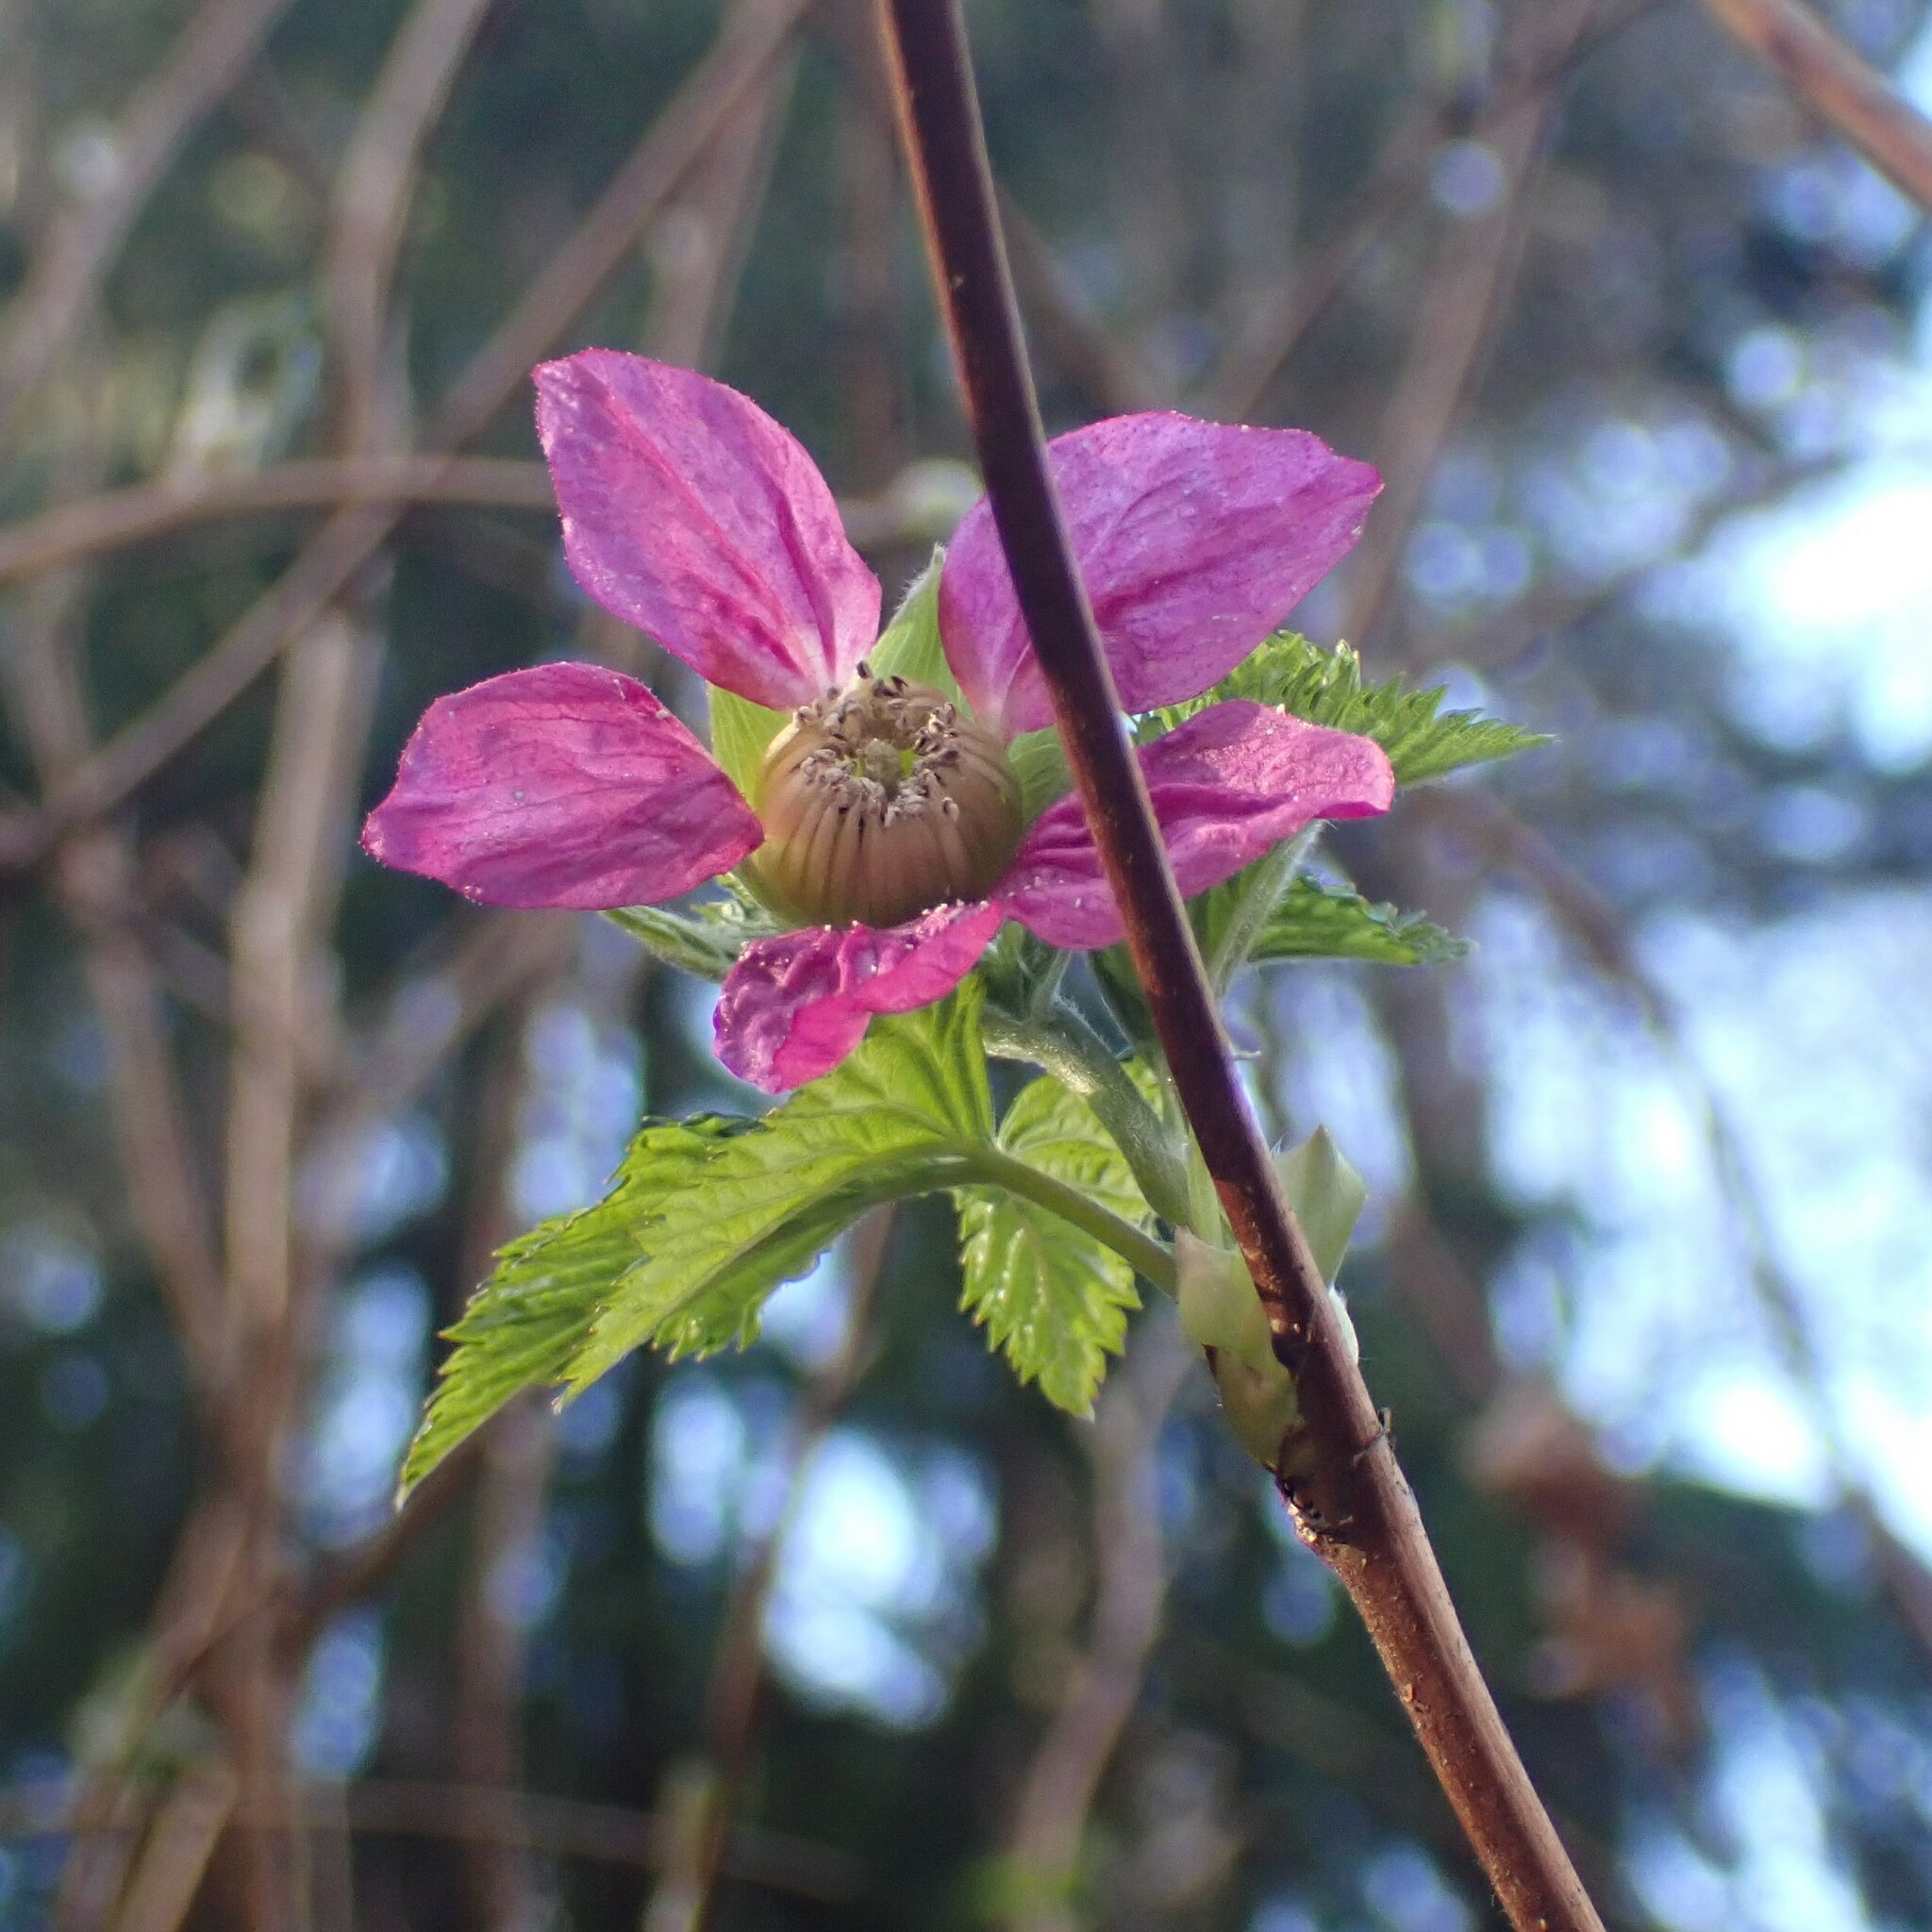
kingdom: Plantae
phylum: Tracheophyta
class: Magnoliopsida
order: Rosales
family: Rosaceae
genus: Rubus
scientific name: Rubus spectabilis
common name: Salmonberry
